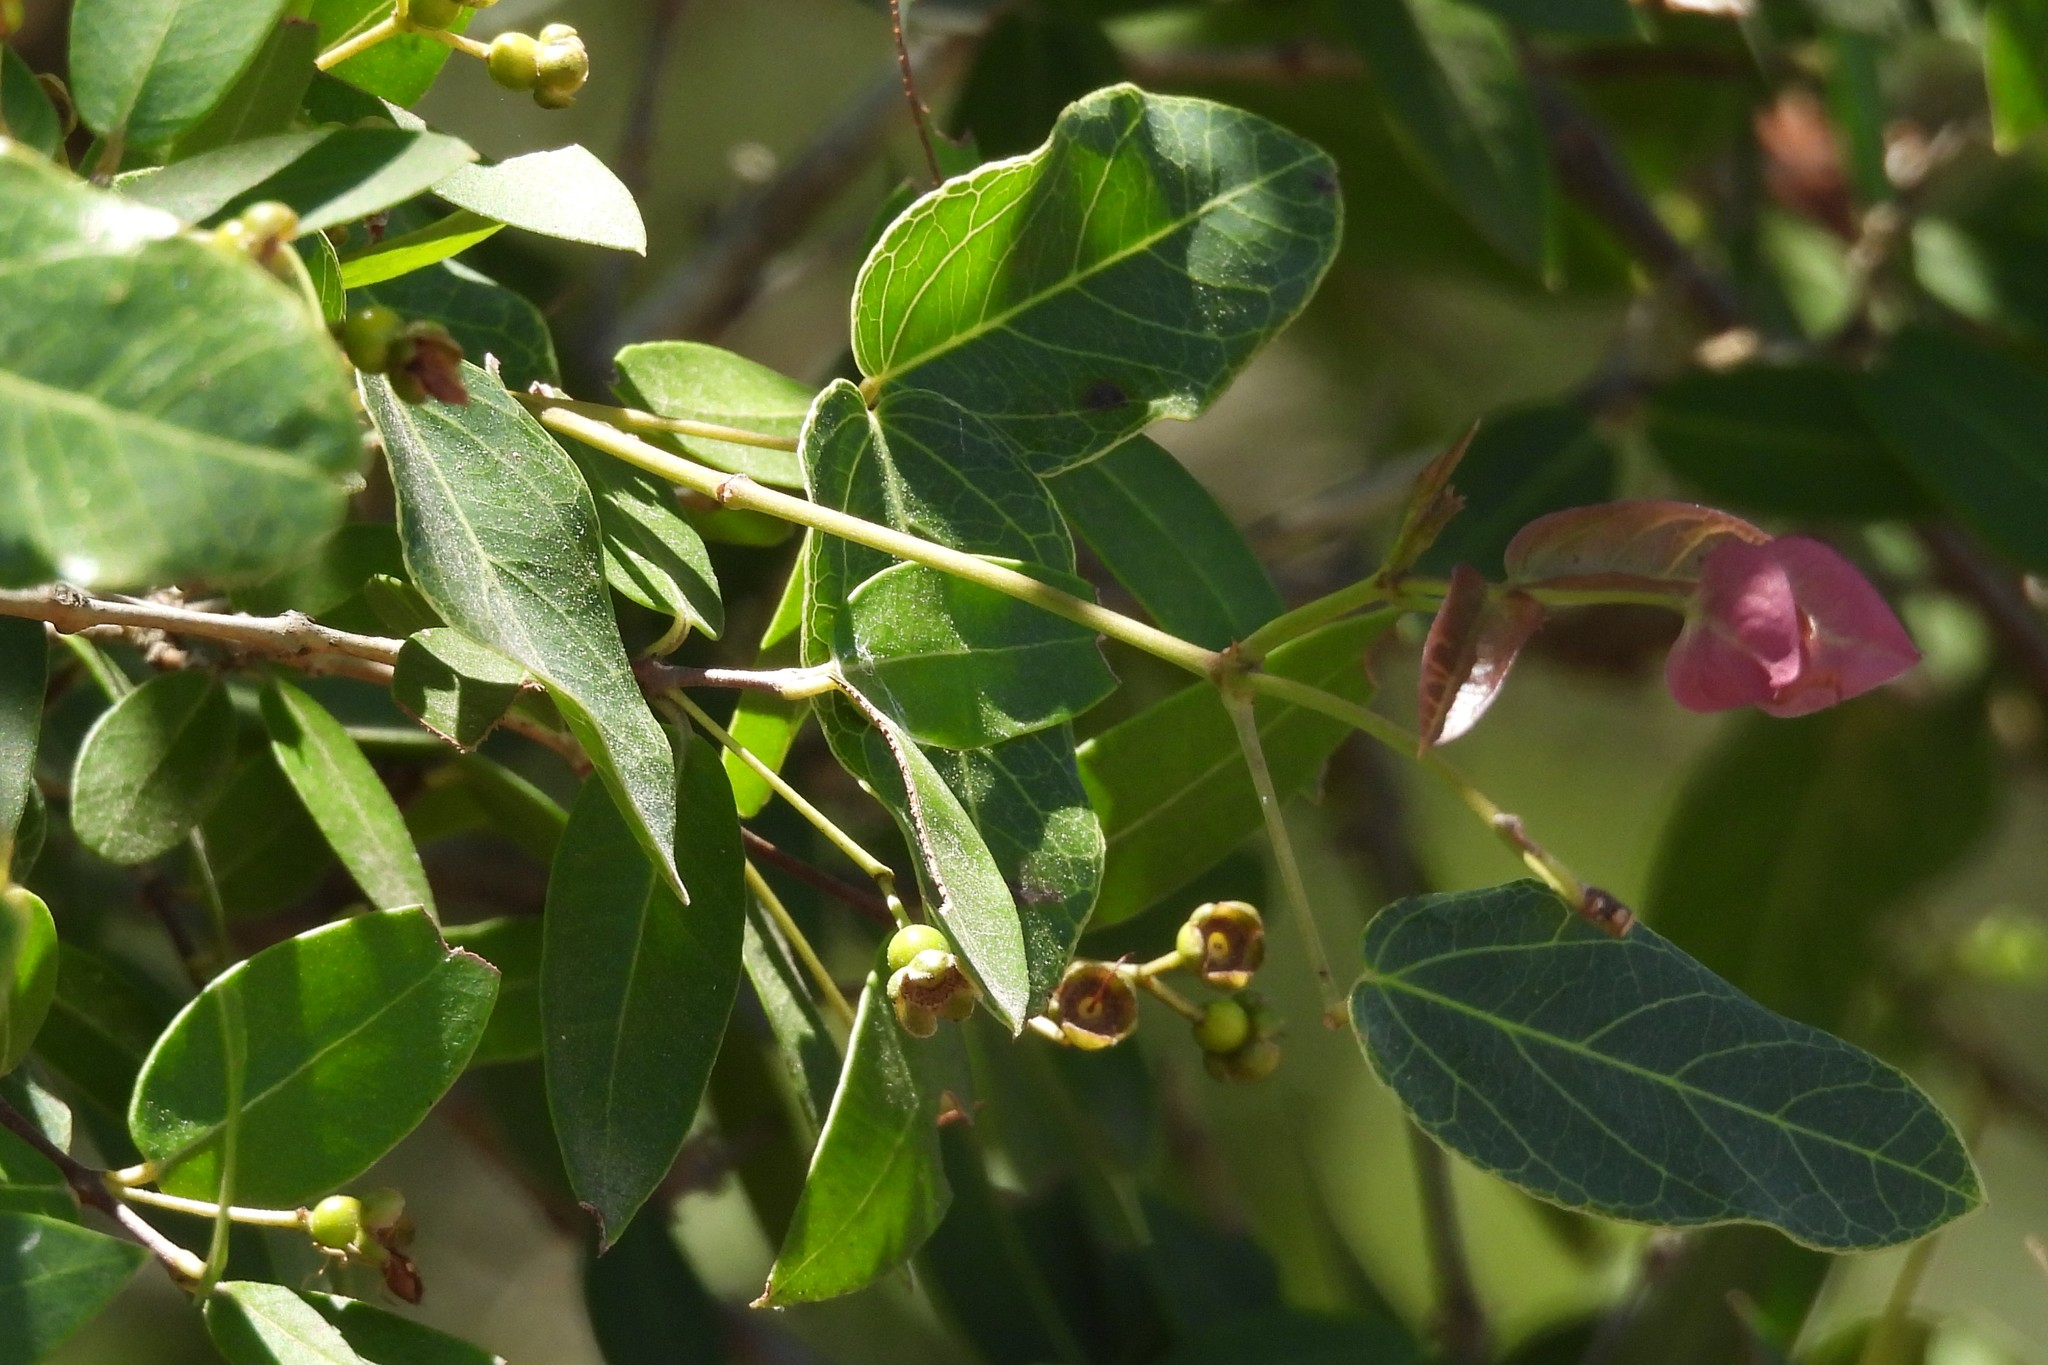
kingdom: Plantae
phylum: Tracheophyta
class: Magnoliopsida
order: Myrtales
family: Myrtaceae
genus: Myrcianthes
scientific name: Myrcianthes cisplatensis
